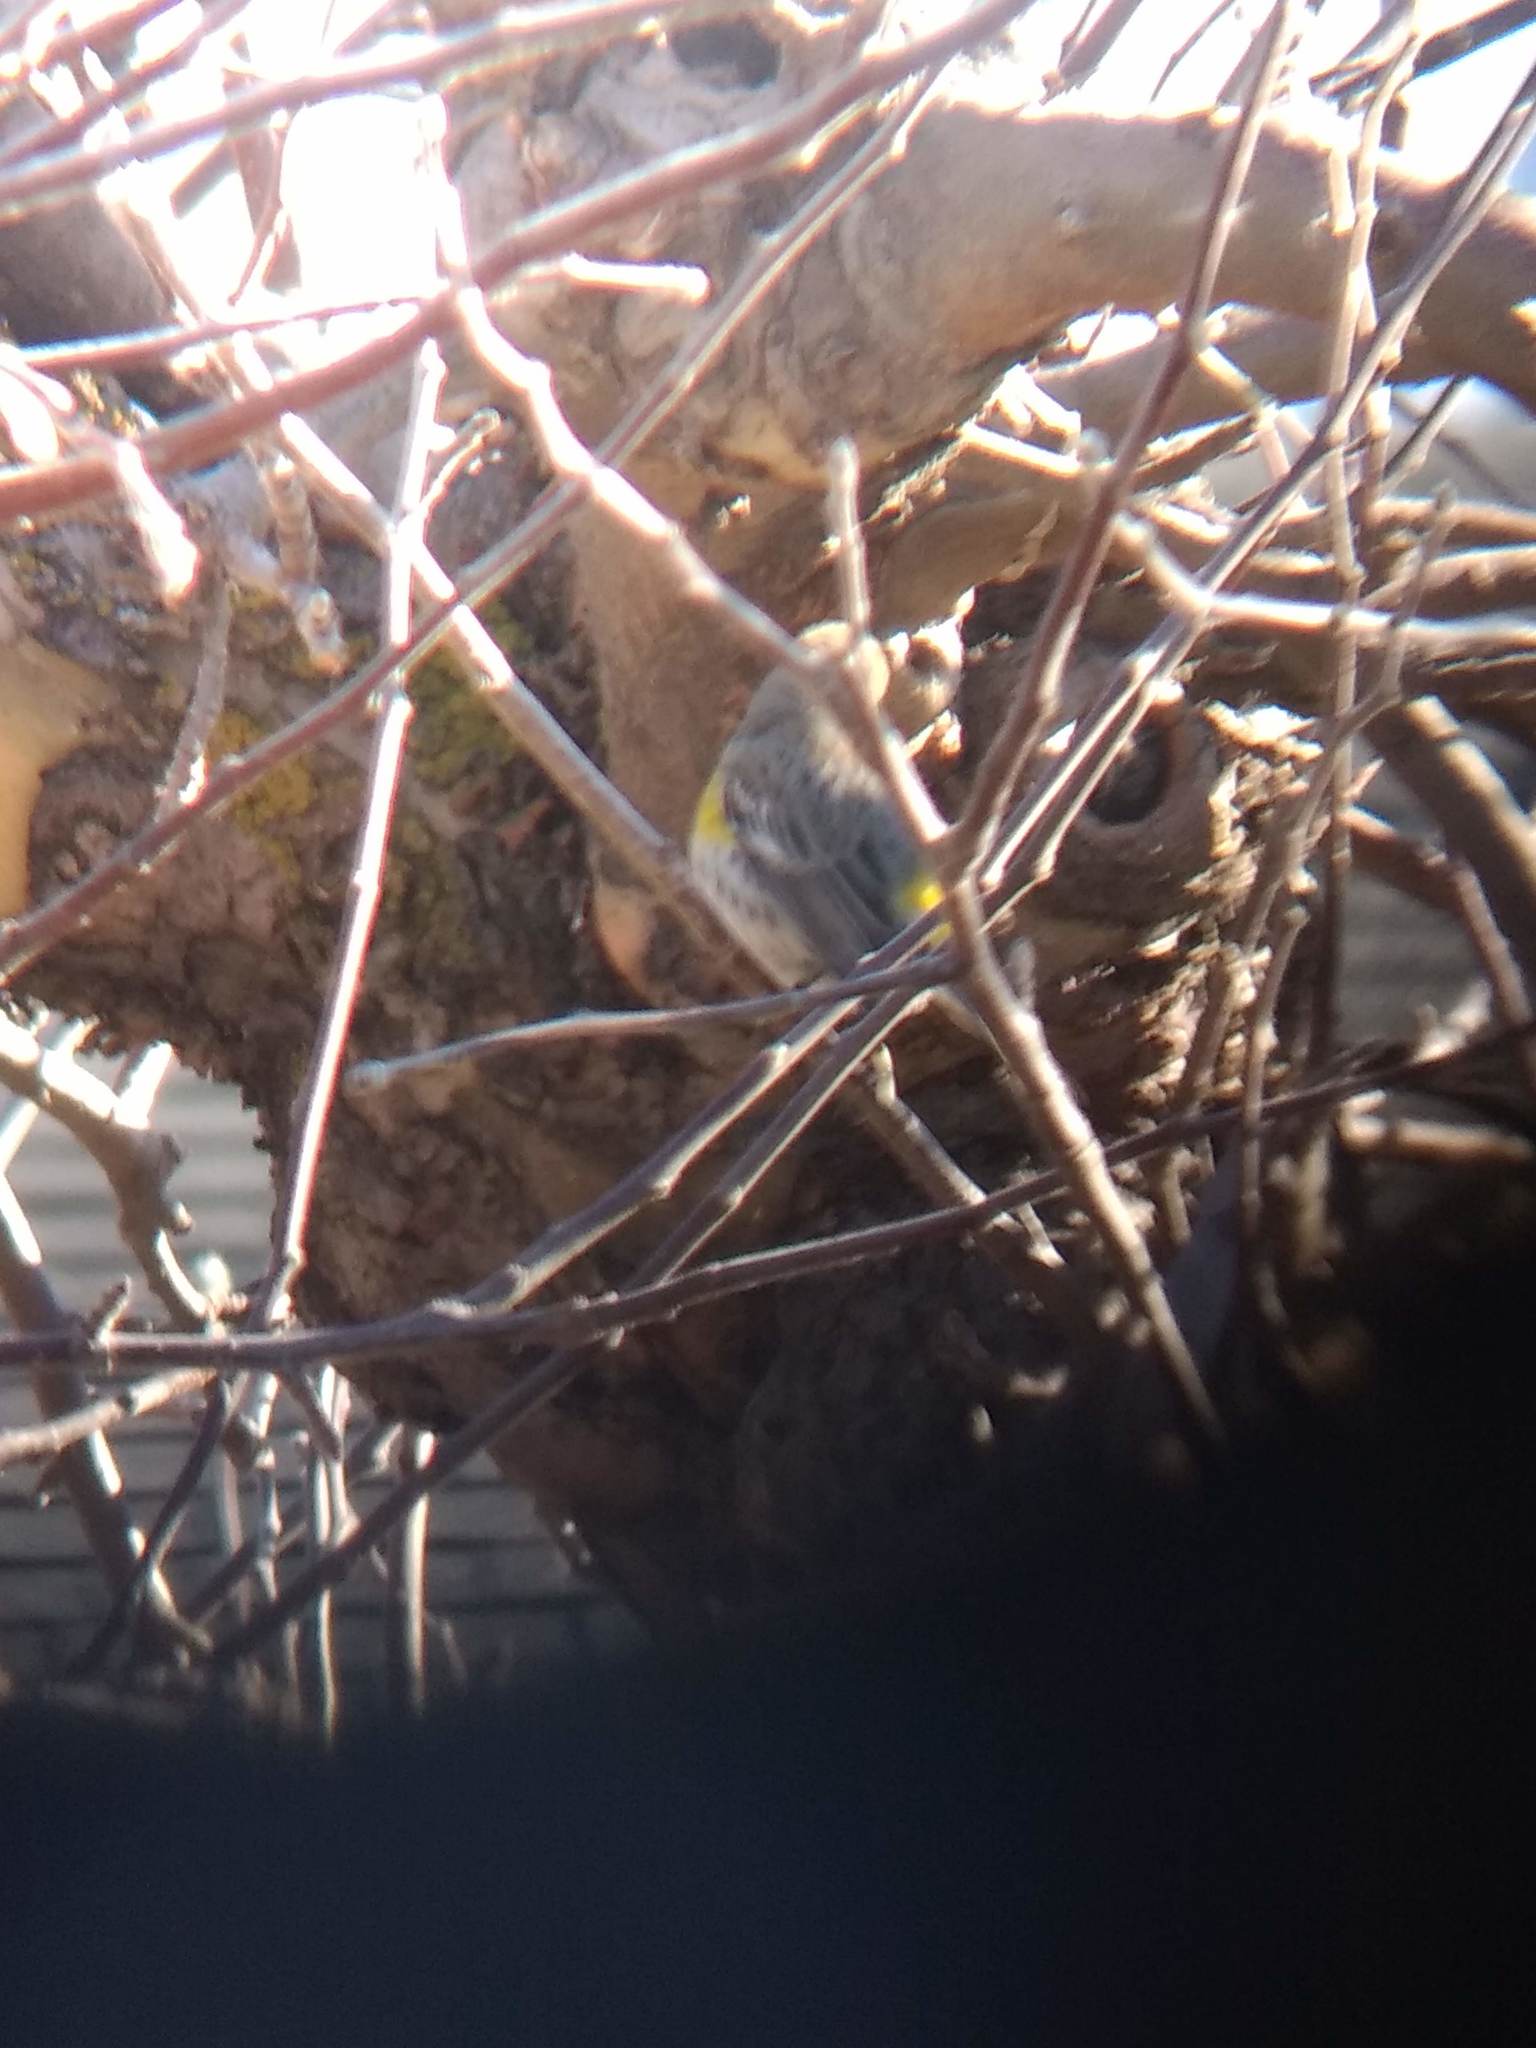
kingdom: Animalia
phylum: Chordata
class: Aves
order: Passeriformes
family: Parulidae
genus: Setophaga
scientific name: Setophaga coronata
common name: Myrtle warbler
